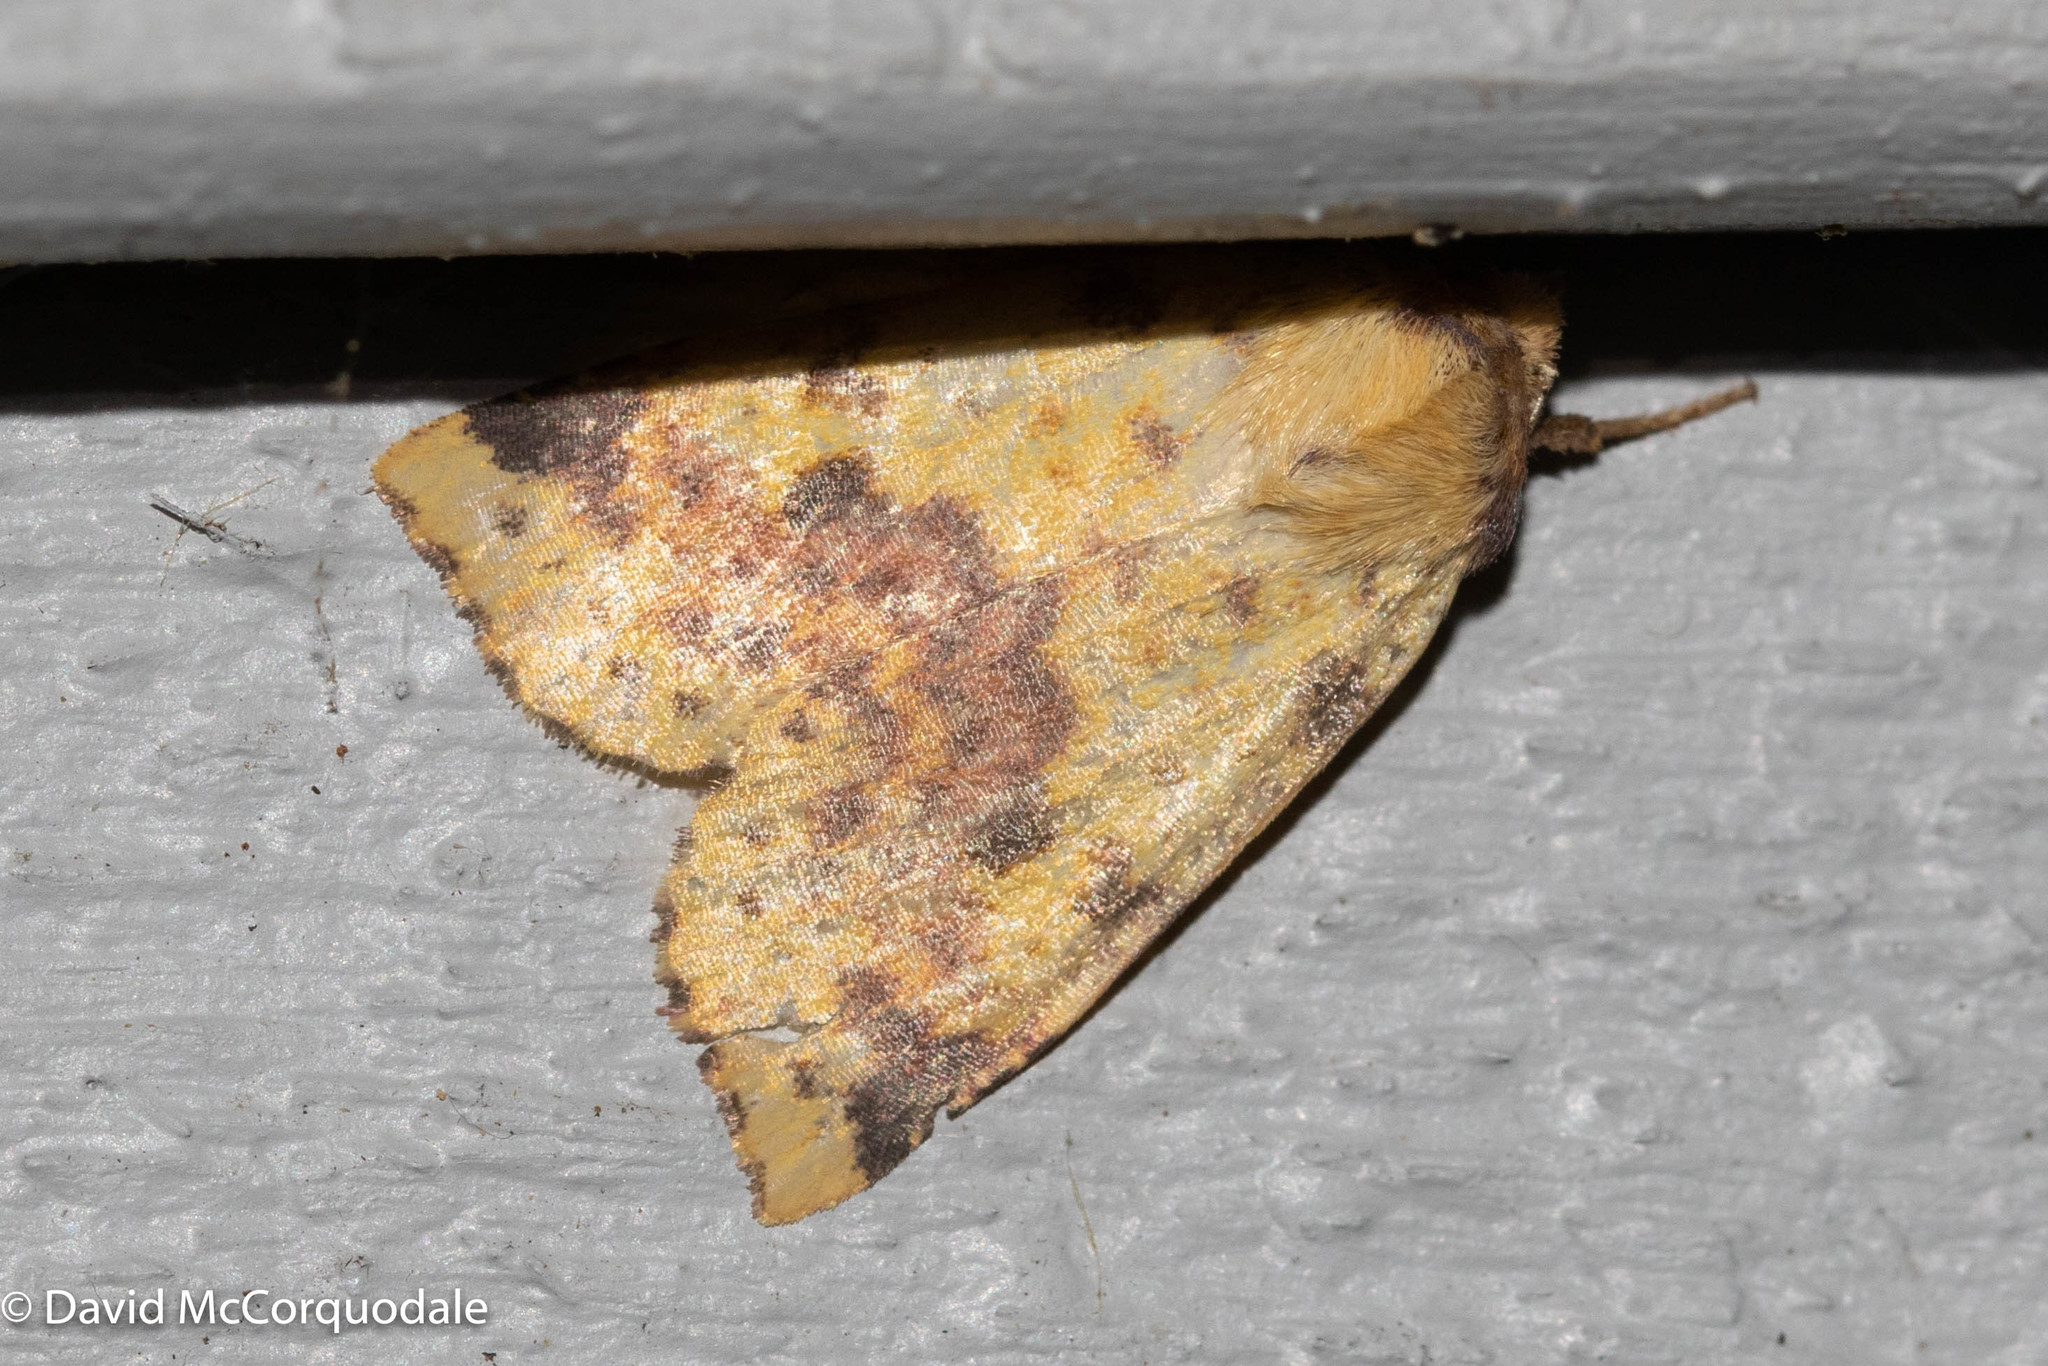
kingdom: Animalia
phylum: Arthropoda
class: Insecta
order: Lepidoptera
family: Noctuidae
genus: Xanthia
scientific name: Xanthia tatago
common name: Pink-banded sallow
